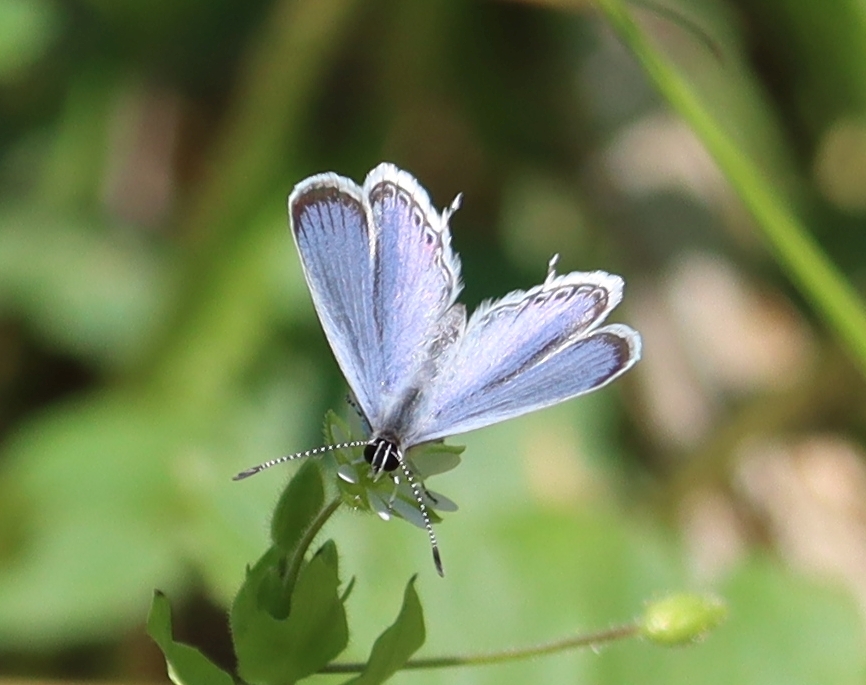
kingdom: Animalia
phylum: Arthropoda
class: Insecta
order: Lepidoptera
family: Lycaenidae
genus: Elkalyce
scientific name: Elkalyce comyntas
